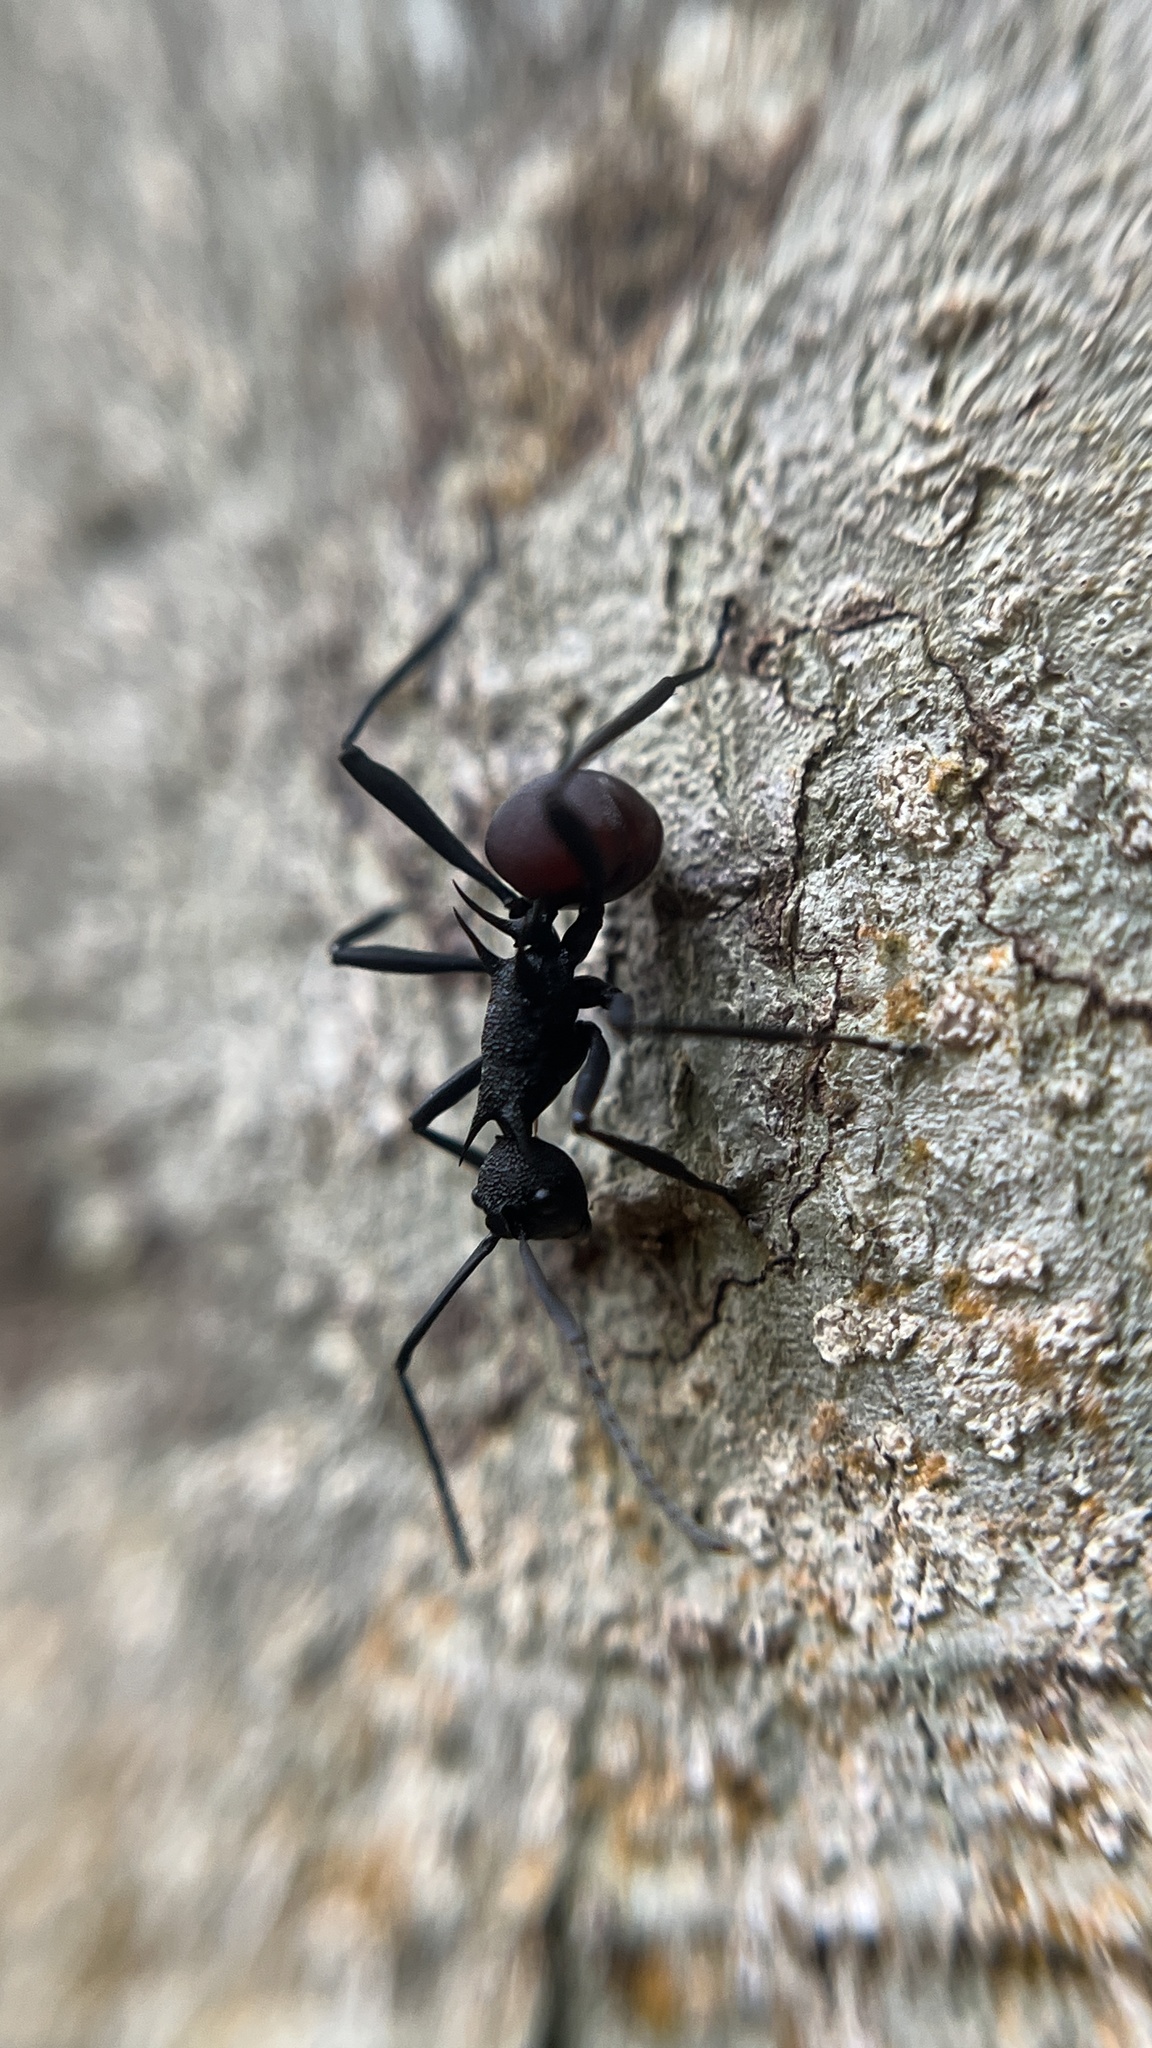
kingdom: Animalia
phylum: Arthropoda
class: Insecta
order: Hymenoptera
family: Formicidae
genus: Polyrhachis
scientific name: Polyrhachis armata
